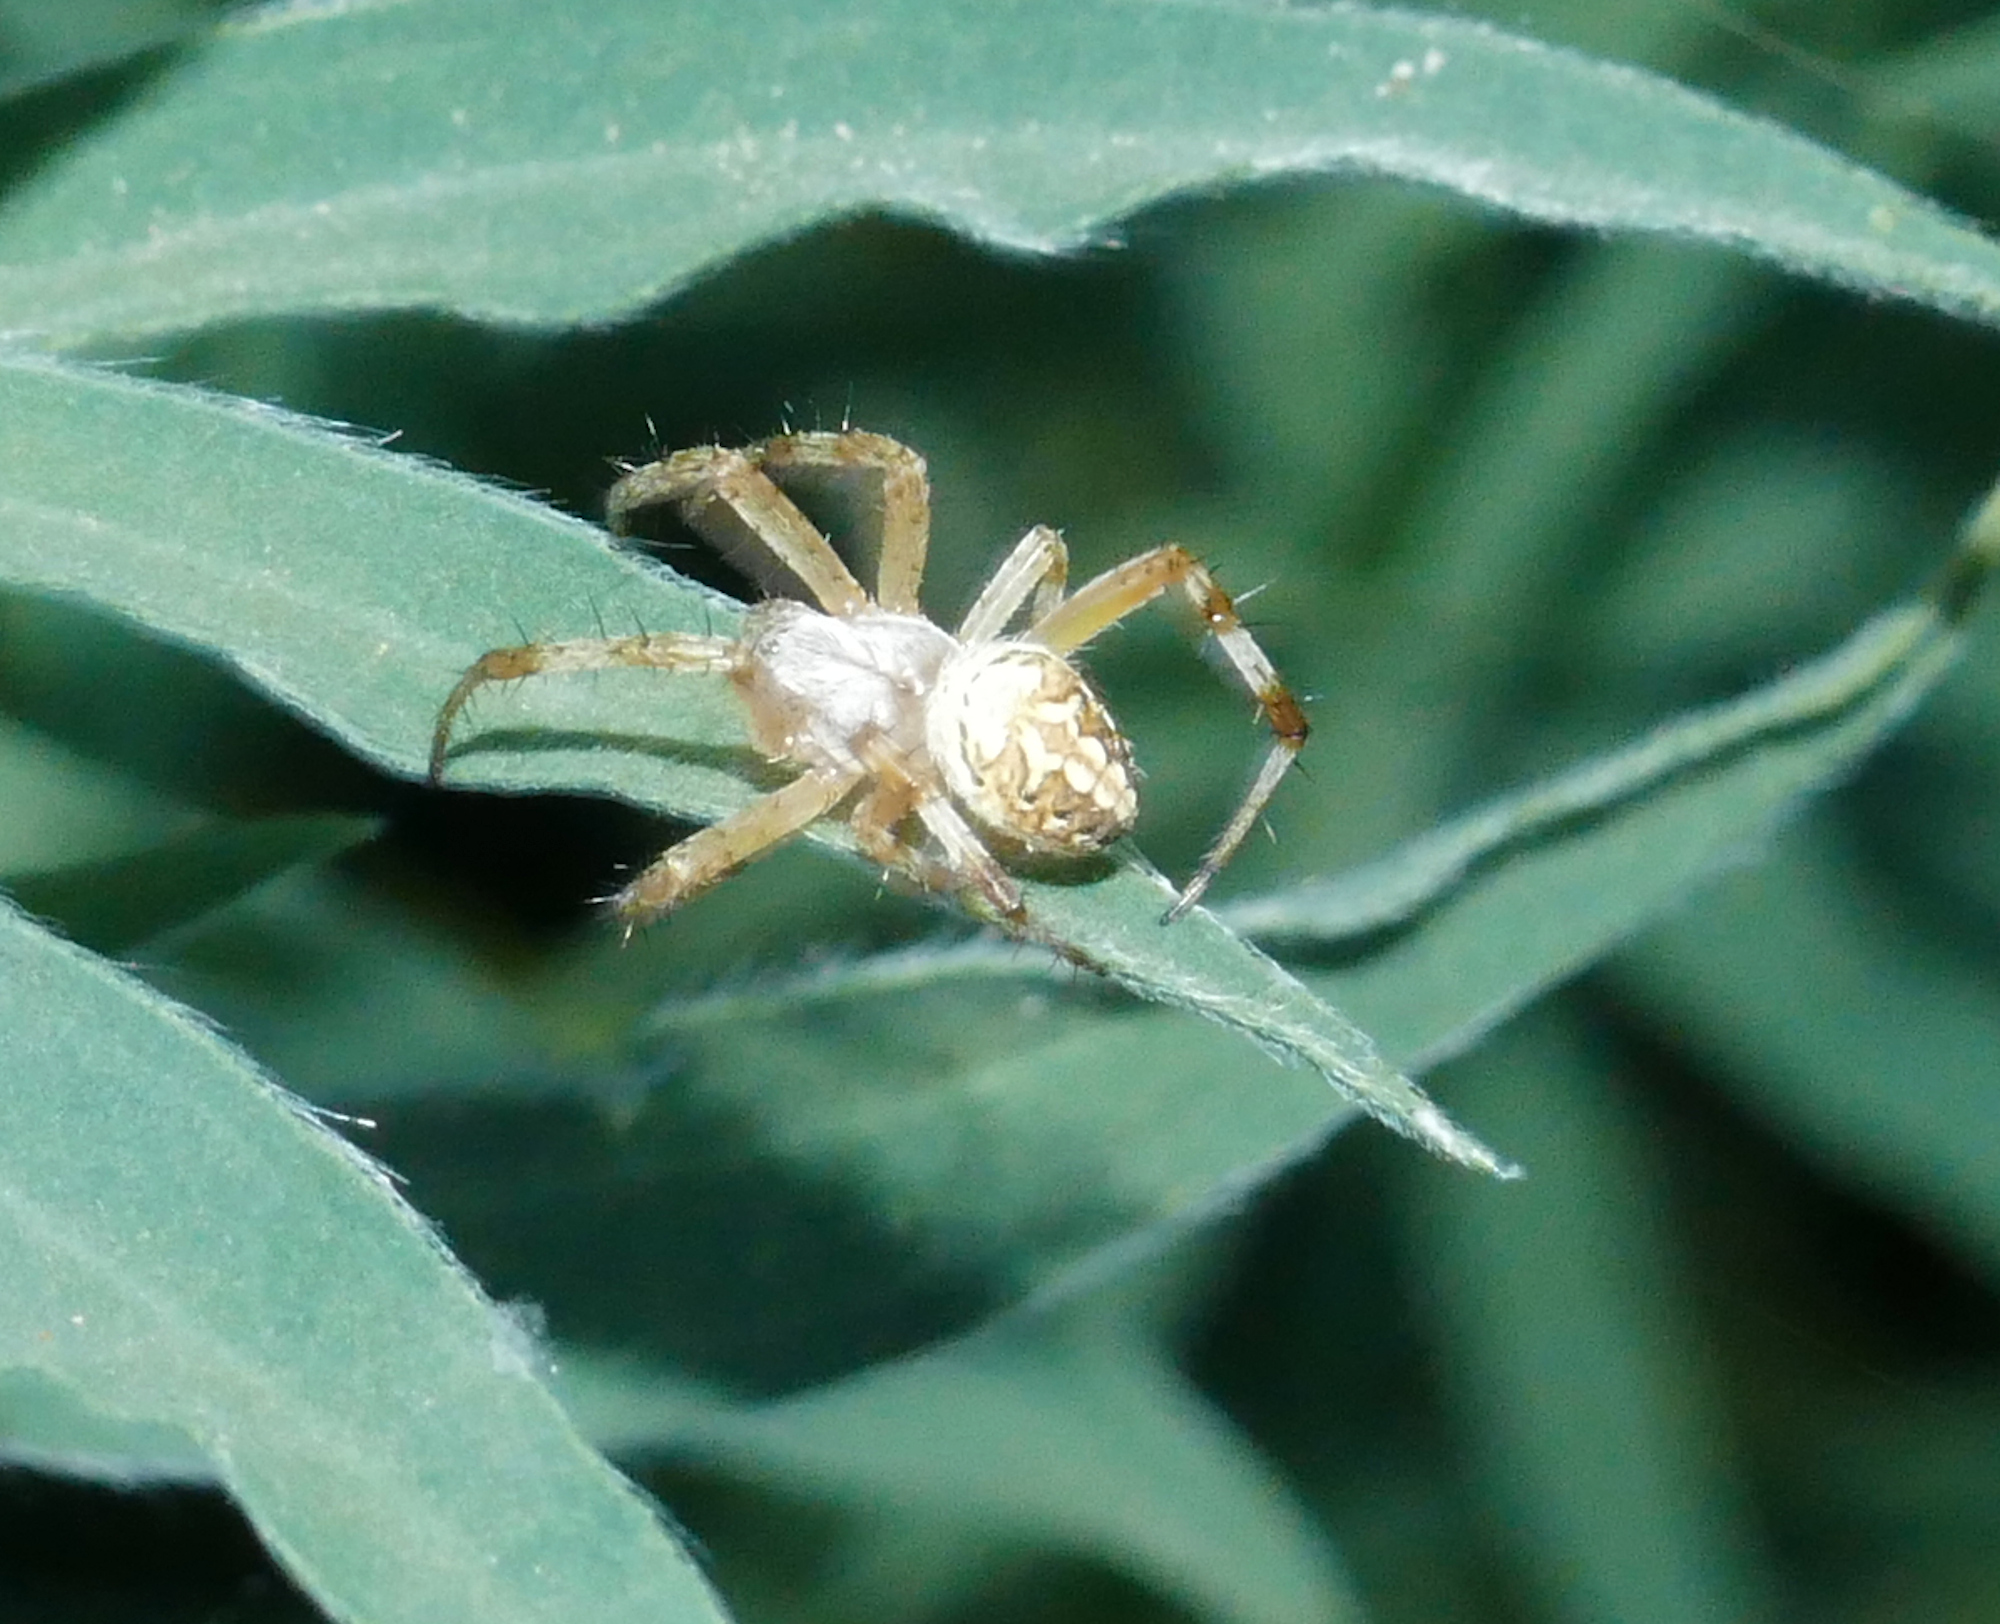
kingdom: Animalia
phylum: Arthropoda
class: Arachnida
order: Araneae
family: Araneidae
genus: Neoscona
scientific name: Neoscona oaxacensis
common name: Orb weavers
